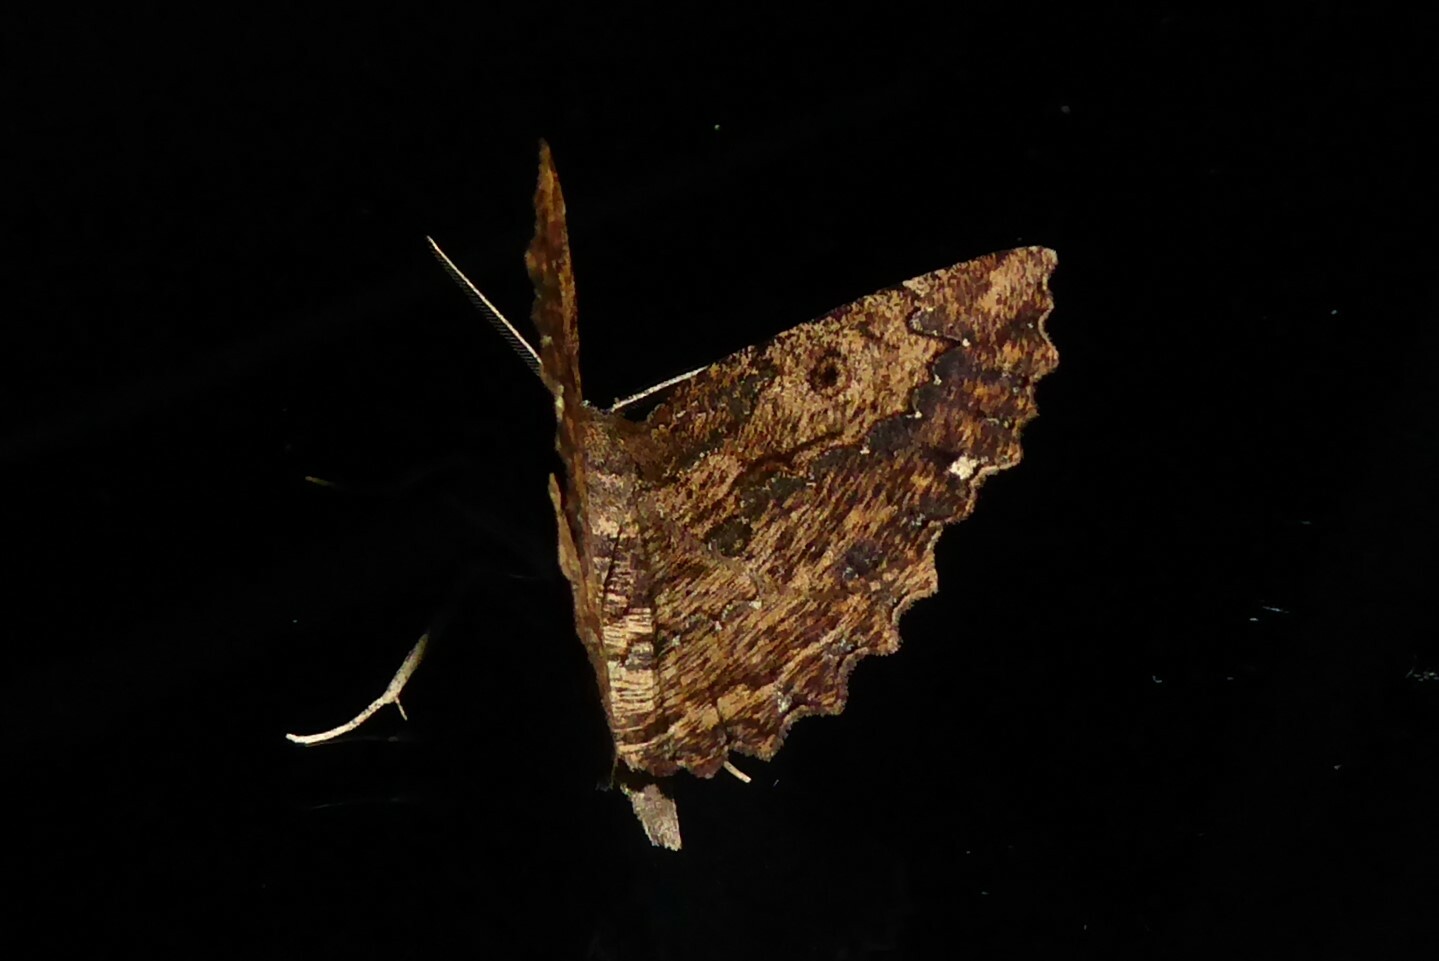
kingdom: Animalia
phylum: Arthropoda
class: Insecta
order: Lepidoptera
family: Geometridae
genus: Gellonia
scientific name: Gellonia pannularia
